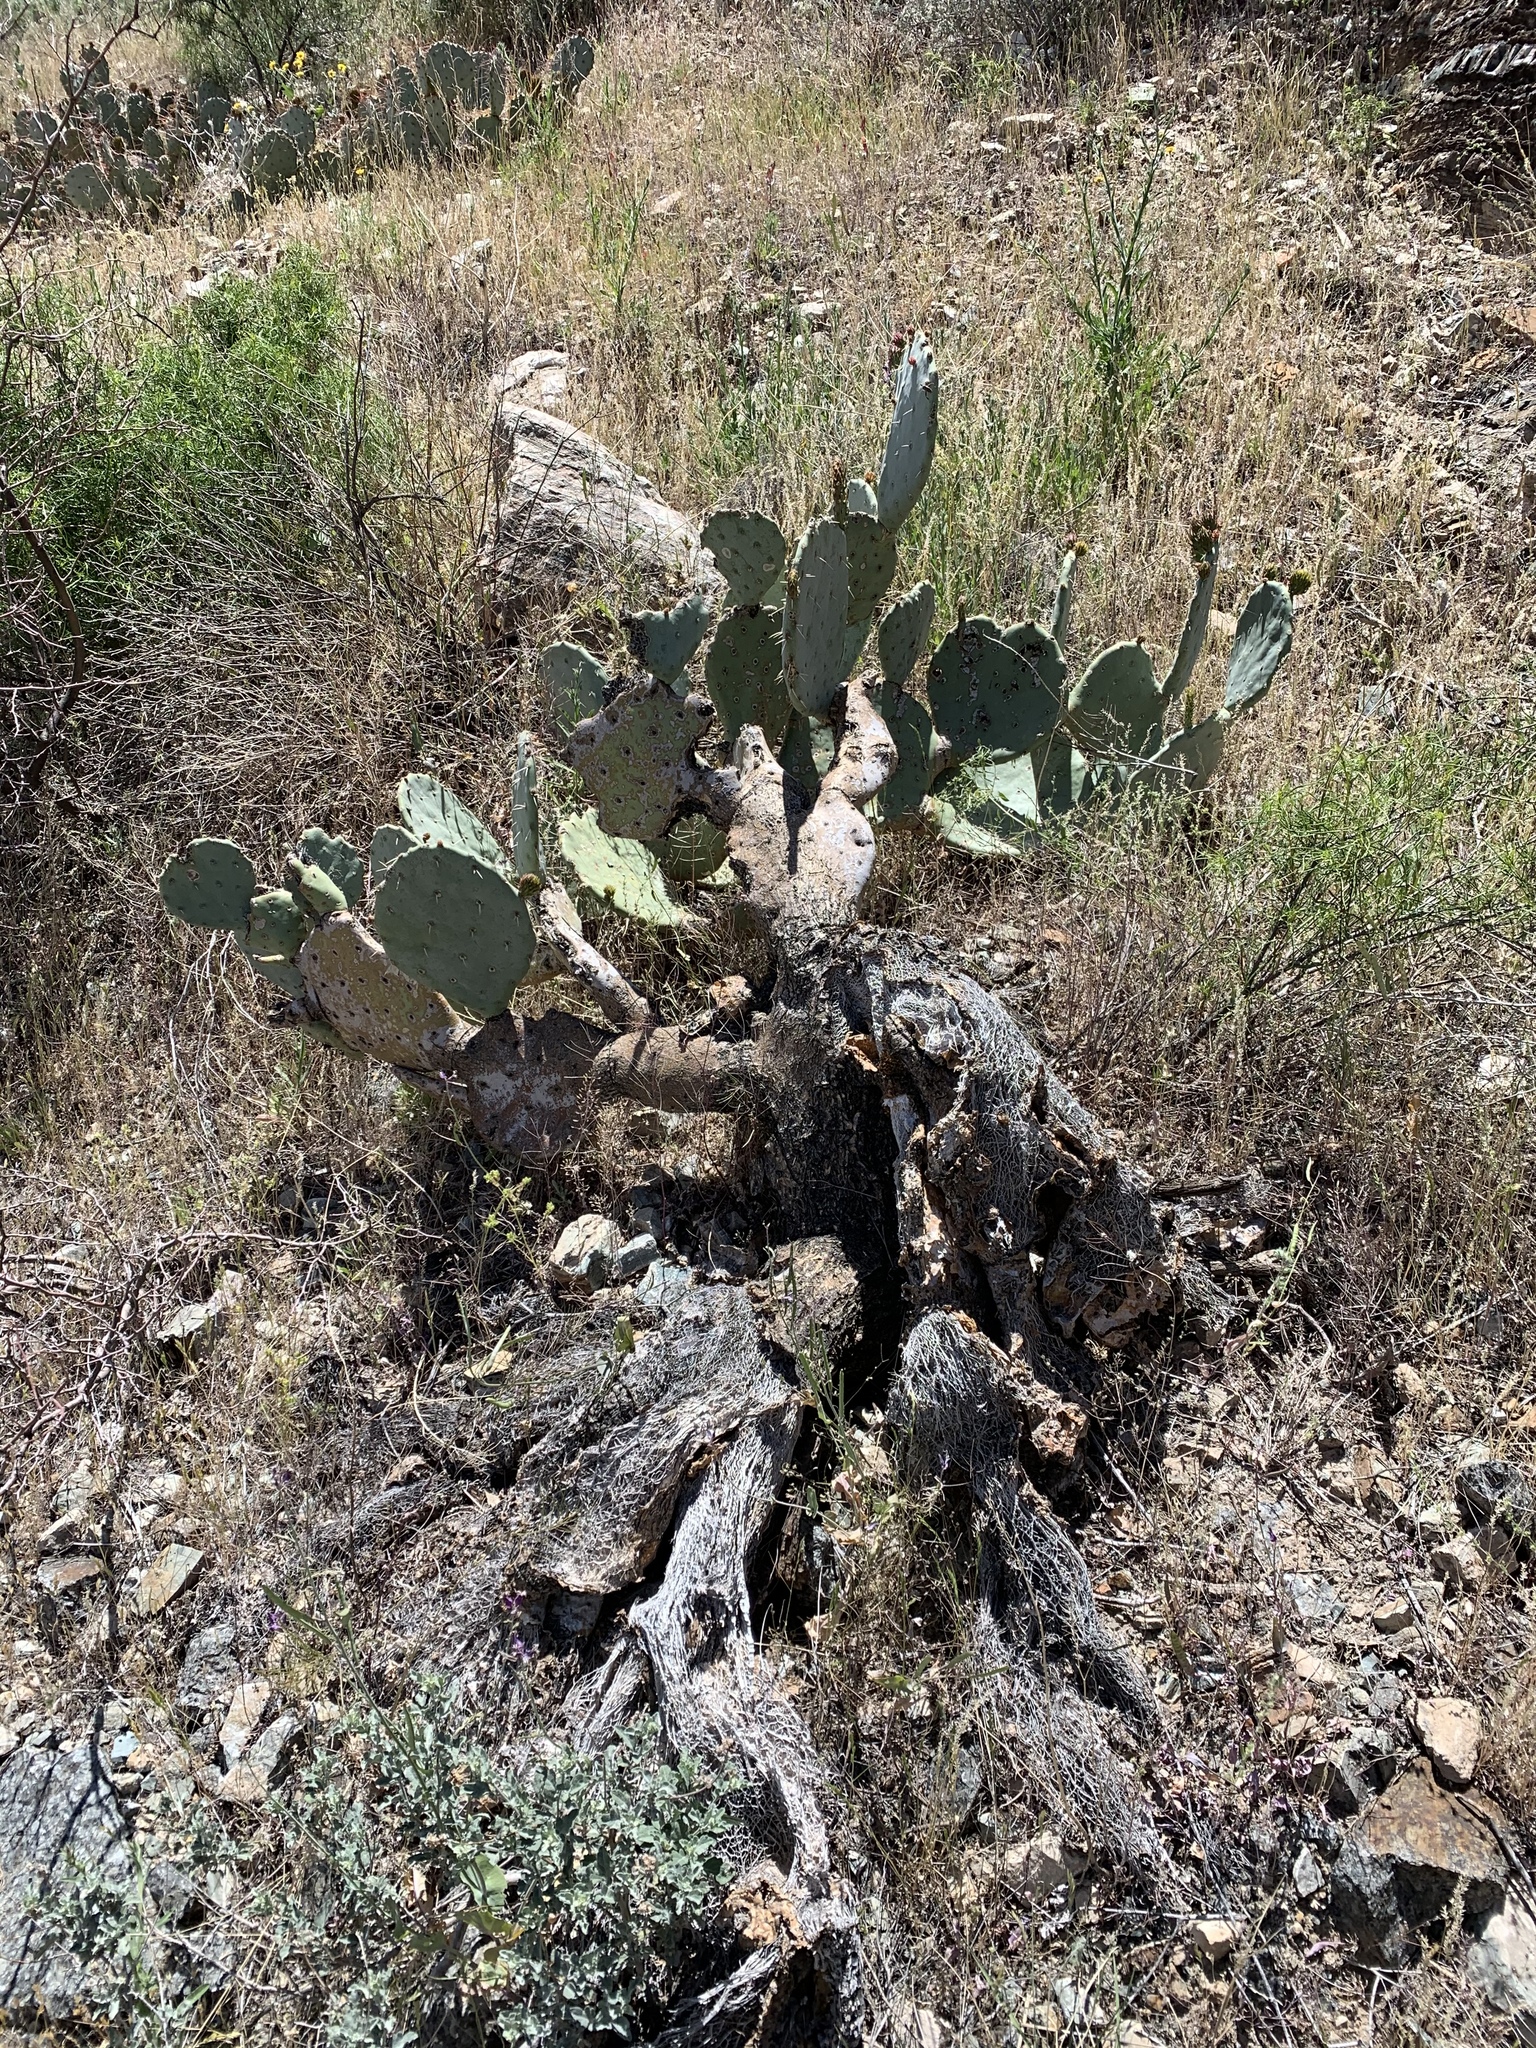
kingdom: Plantae
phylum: Tracheophyta
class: Magnoliopsida
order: Caryophyllales
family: Cactaceae
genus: Opuntia
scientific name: Opuntia orbiculata
